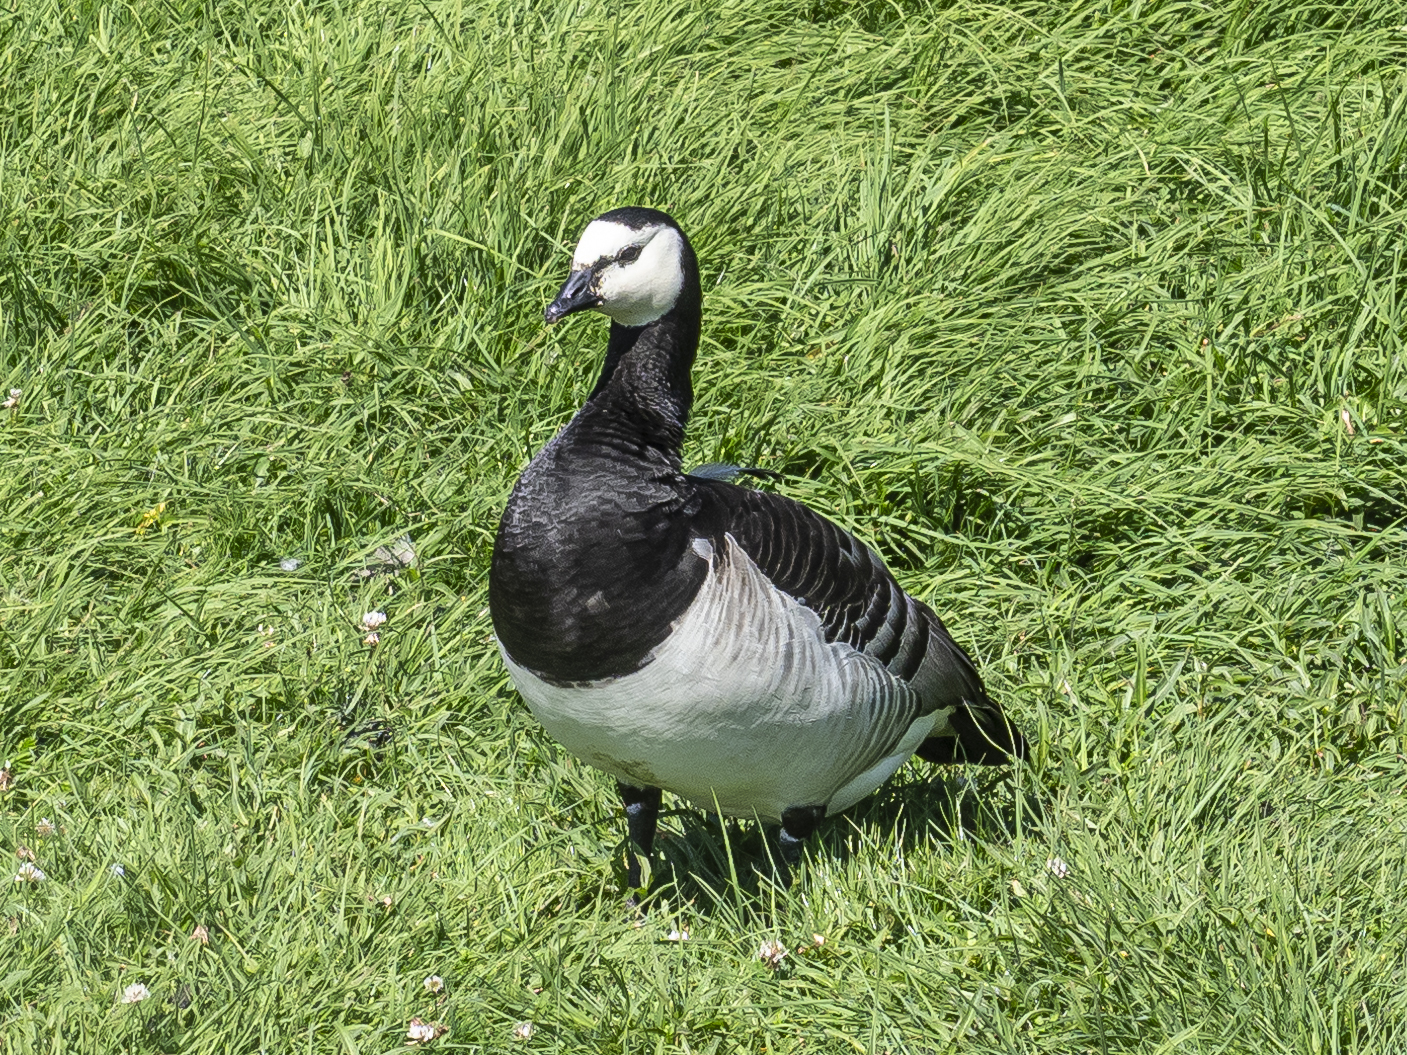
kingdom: Animalia
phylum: Chordata
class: Aves
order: Anseriformes
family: Anatidae
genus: Branta
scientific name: Branta leucopsis
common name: Barnacle goose
